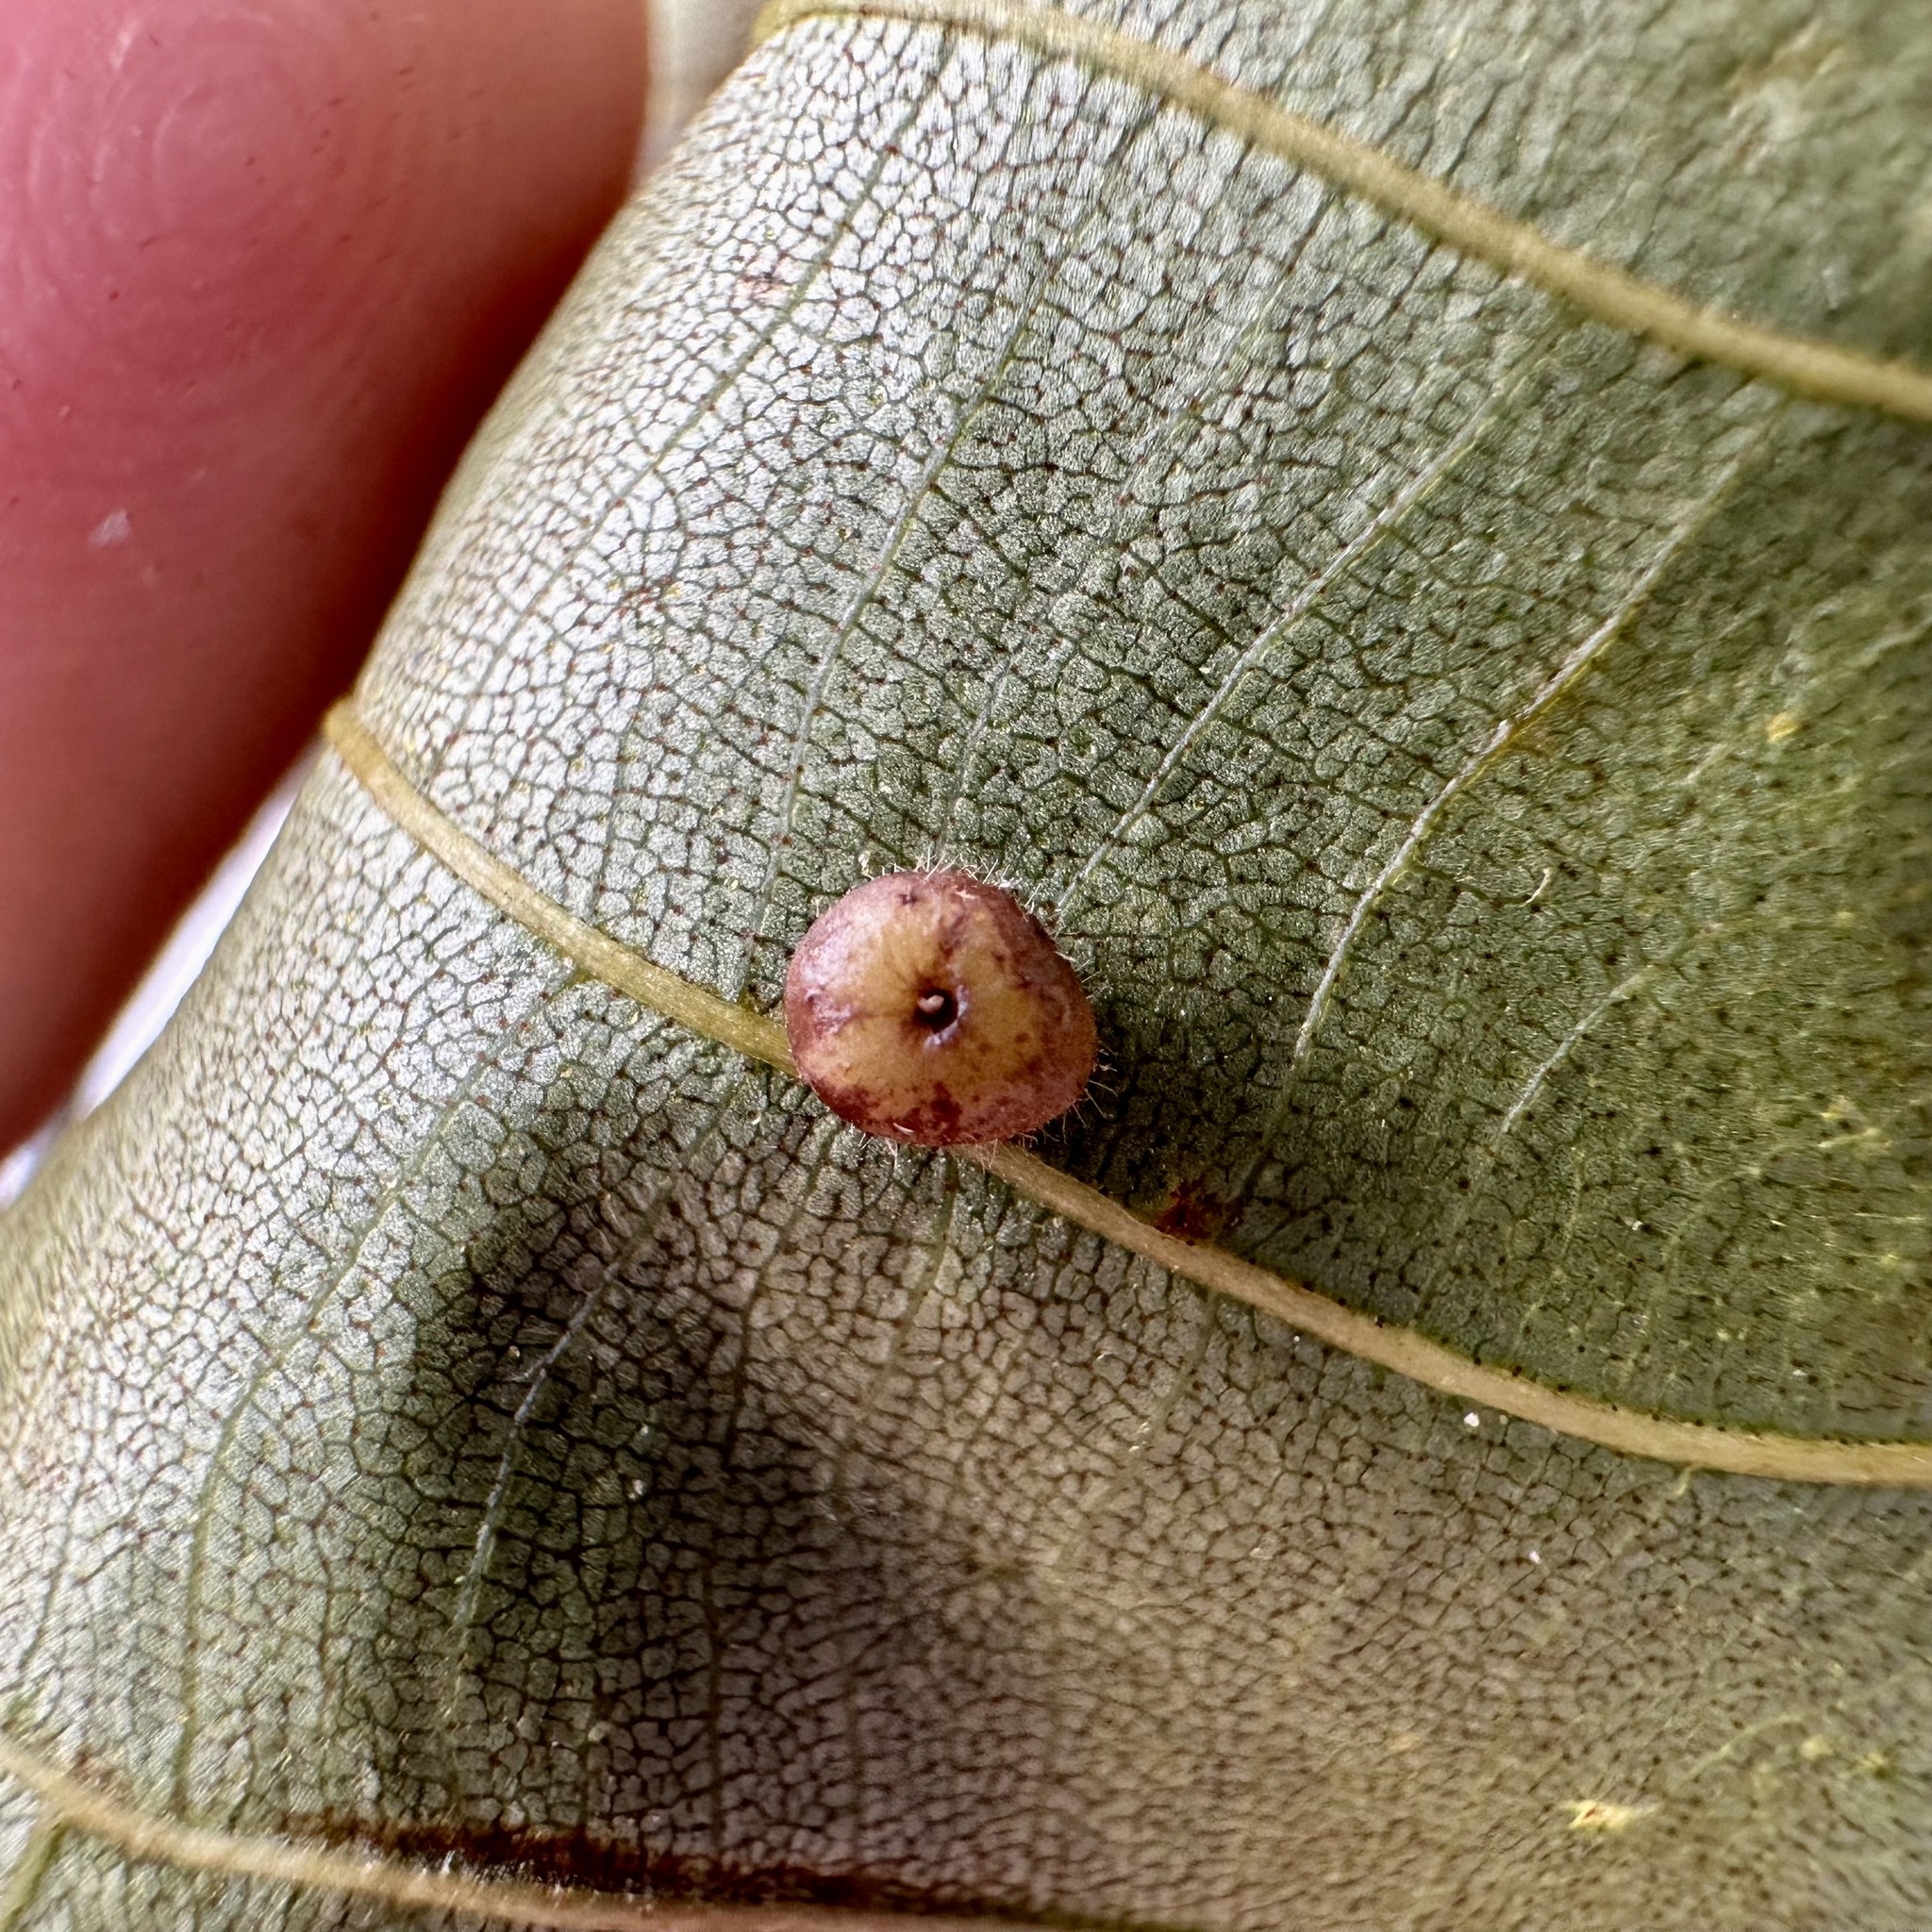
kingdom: Animalia
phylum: Arthropoda
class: Insecta
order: Diptera
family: Cecidomyiidae
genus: Caryomyia
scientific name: Caryomyia thompsoni
